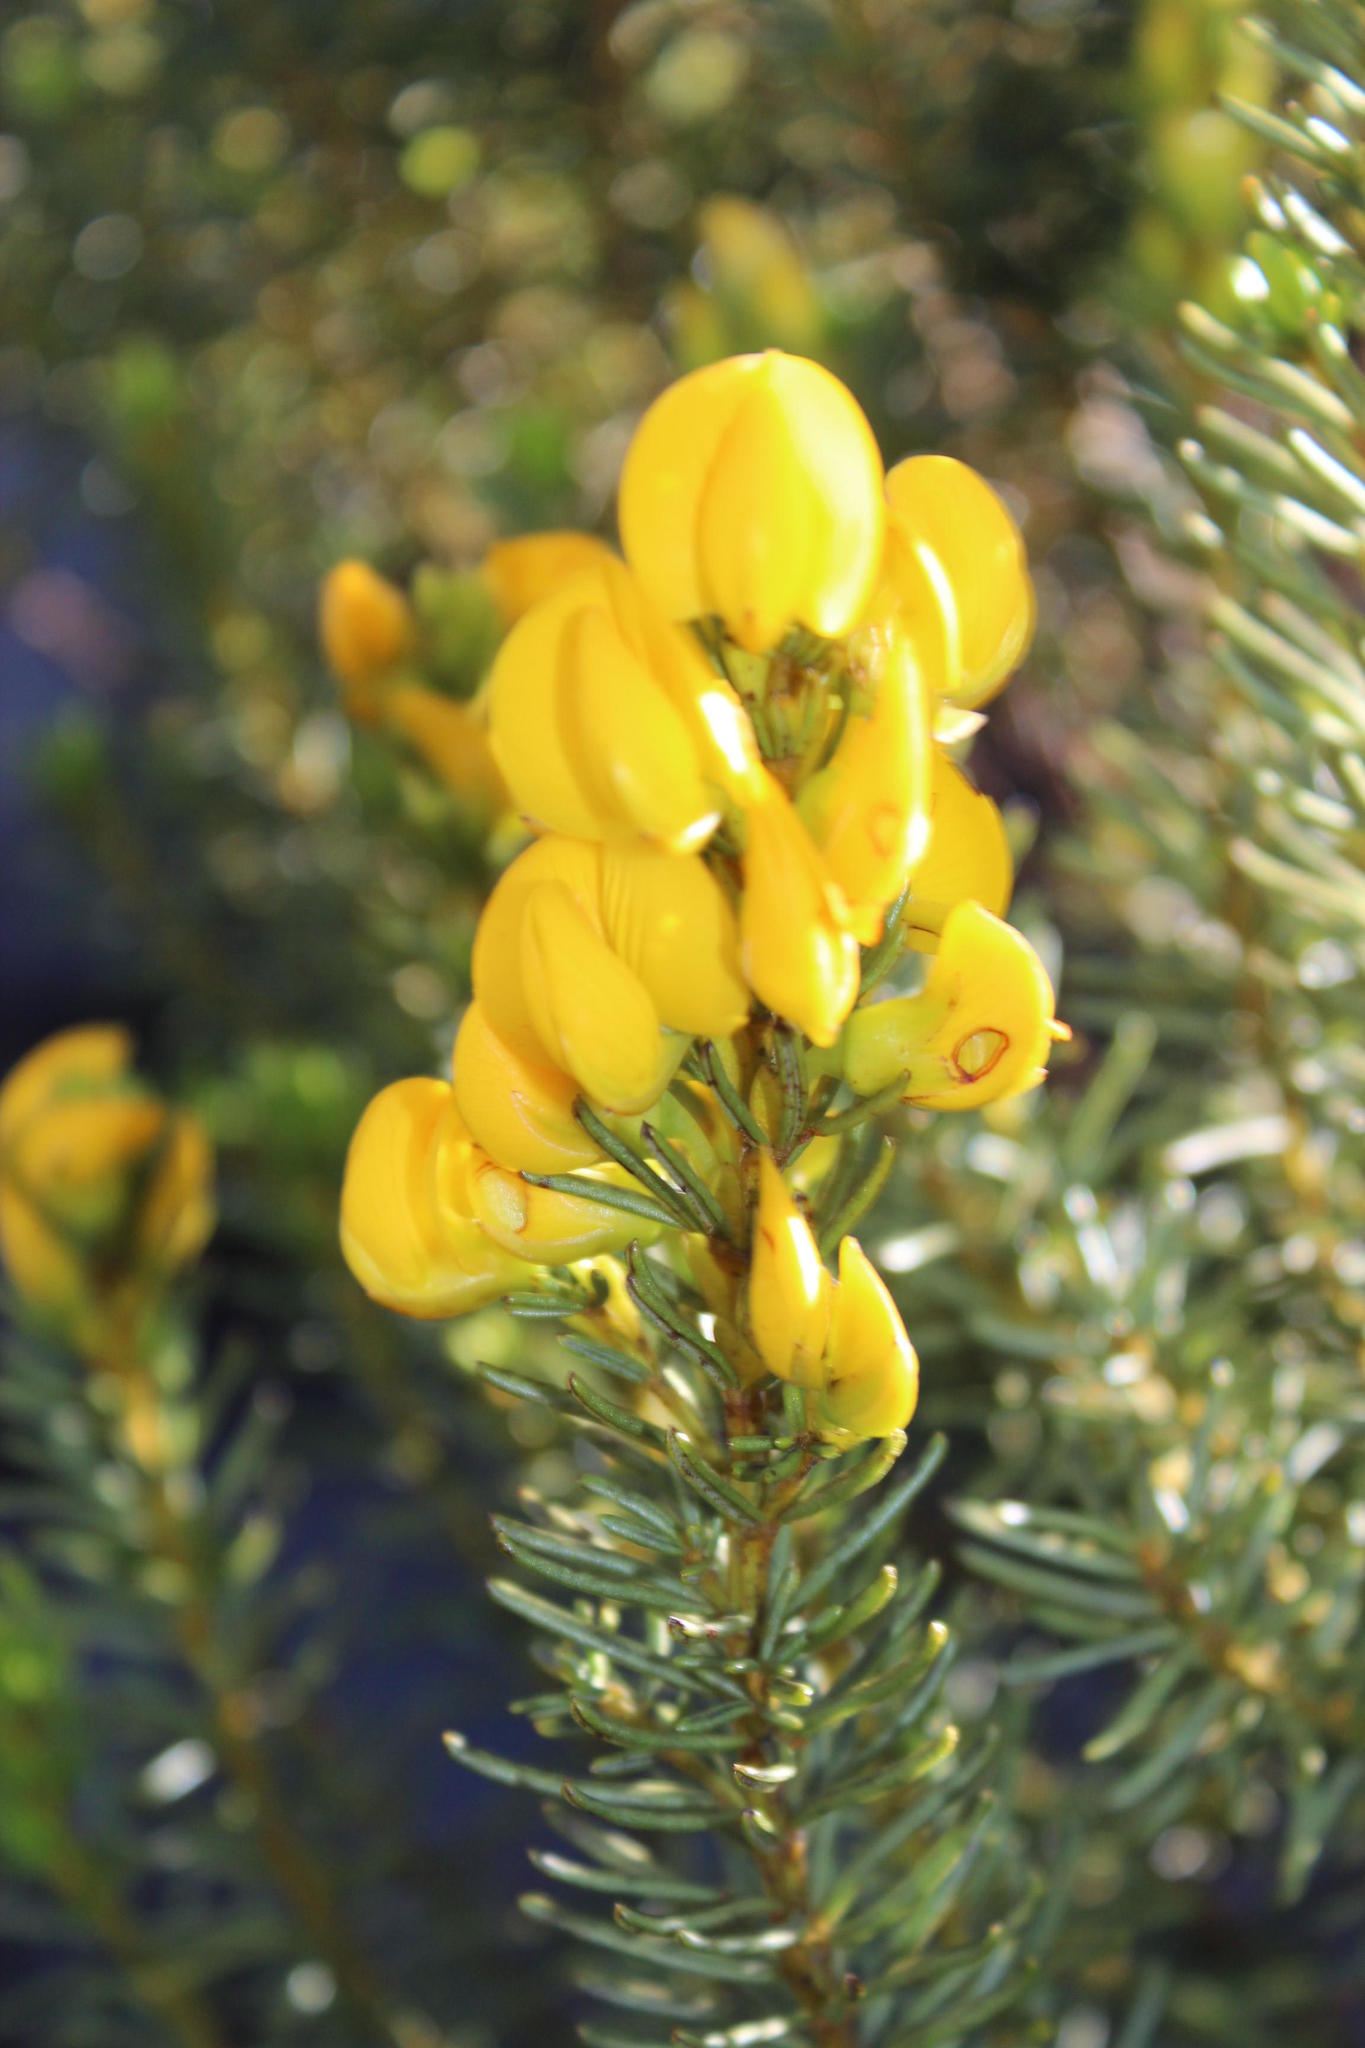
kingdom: Plantae
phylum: Tracheophyta
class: Magnoliopsida
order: Fabales
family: Fabaceae
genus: Cyclopia
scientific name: Cyclopia genistoides
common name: Honeybush tea
